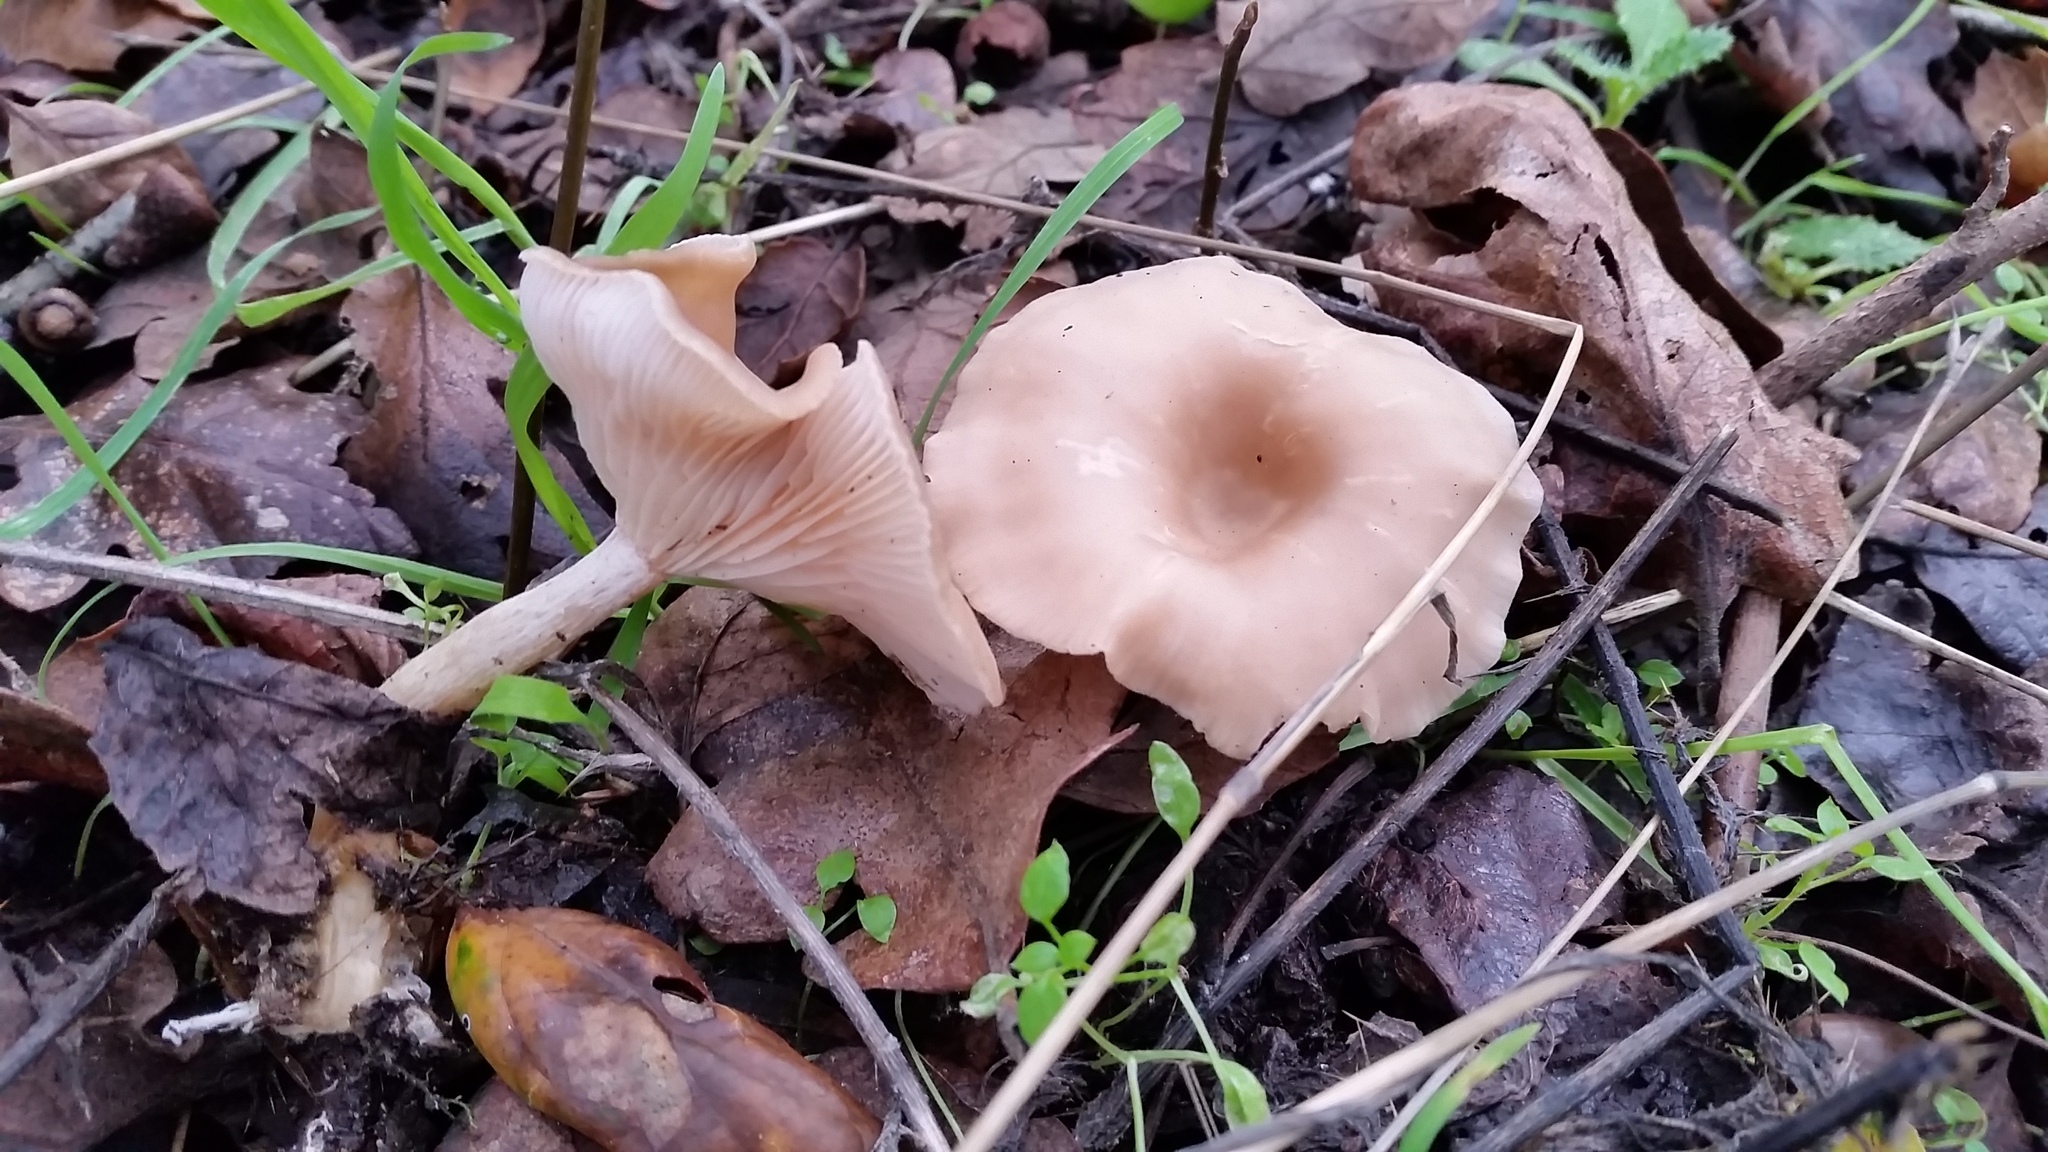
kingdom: Fungi
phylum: Basidiomycota
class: Agaricomycetes
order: Agaricales
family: Tricholomataceae
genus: Clitocybe
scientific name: Clitocybe fragrans
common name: Fragrant funnel
